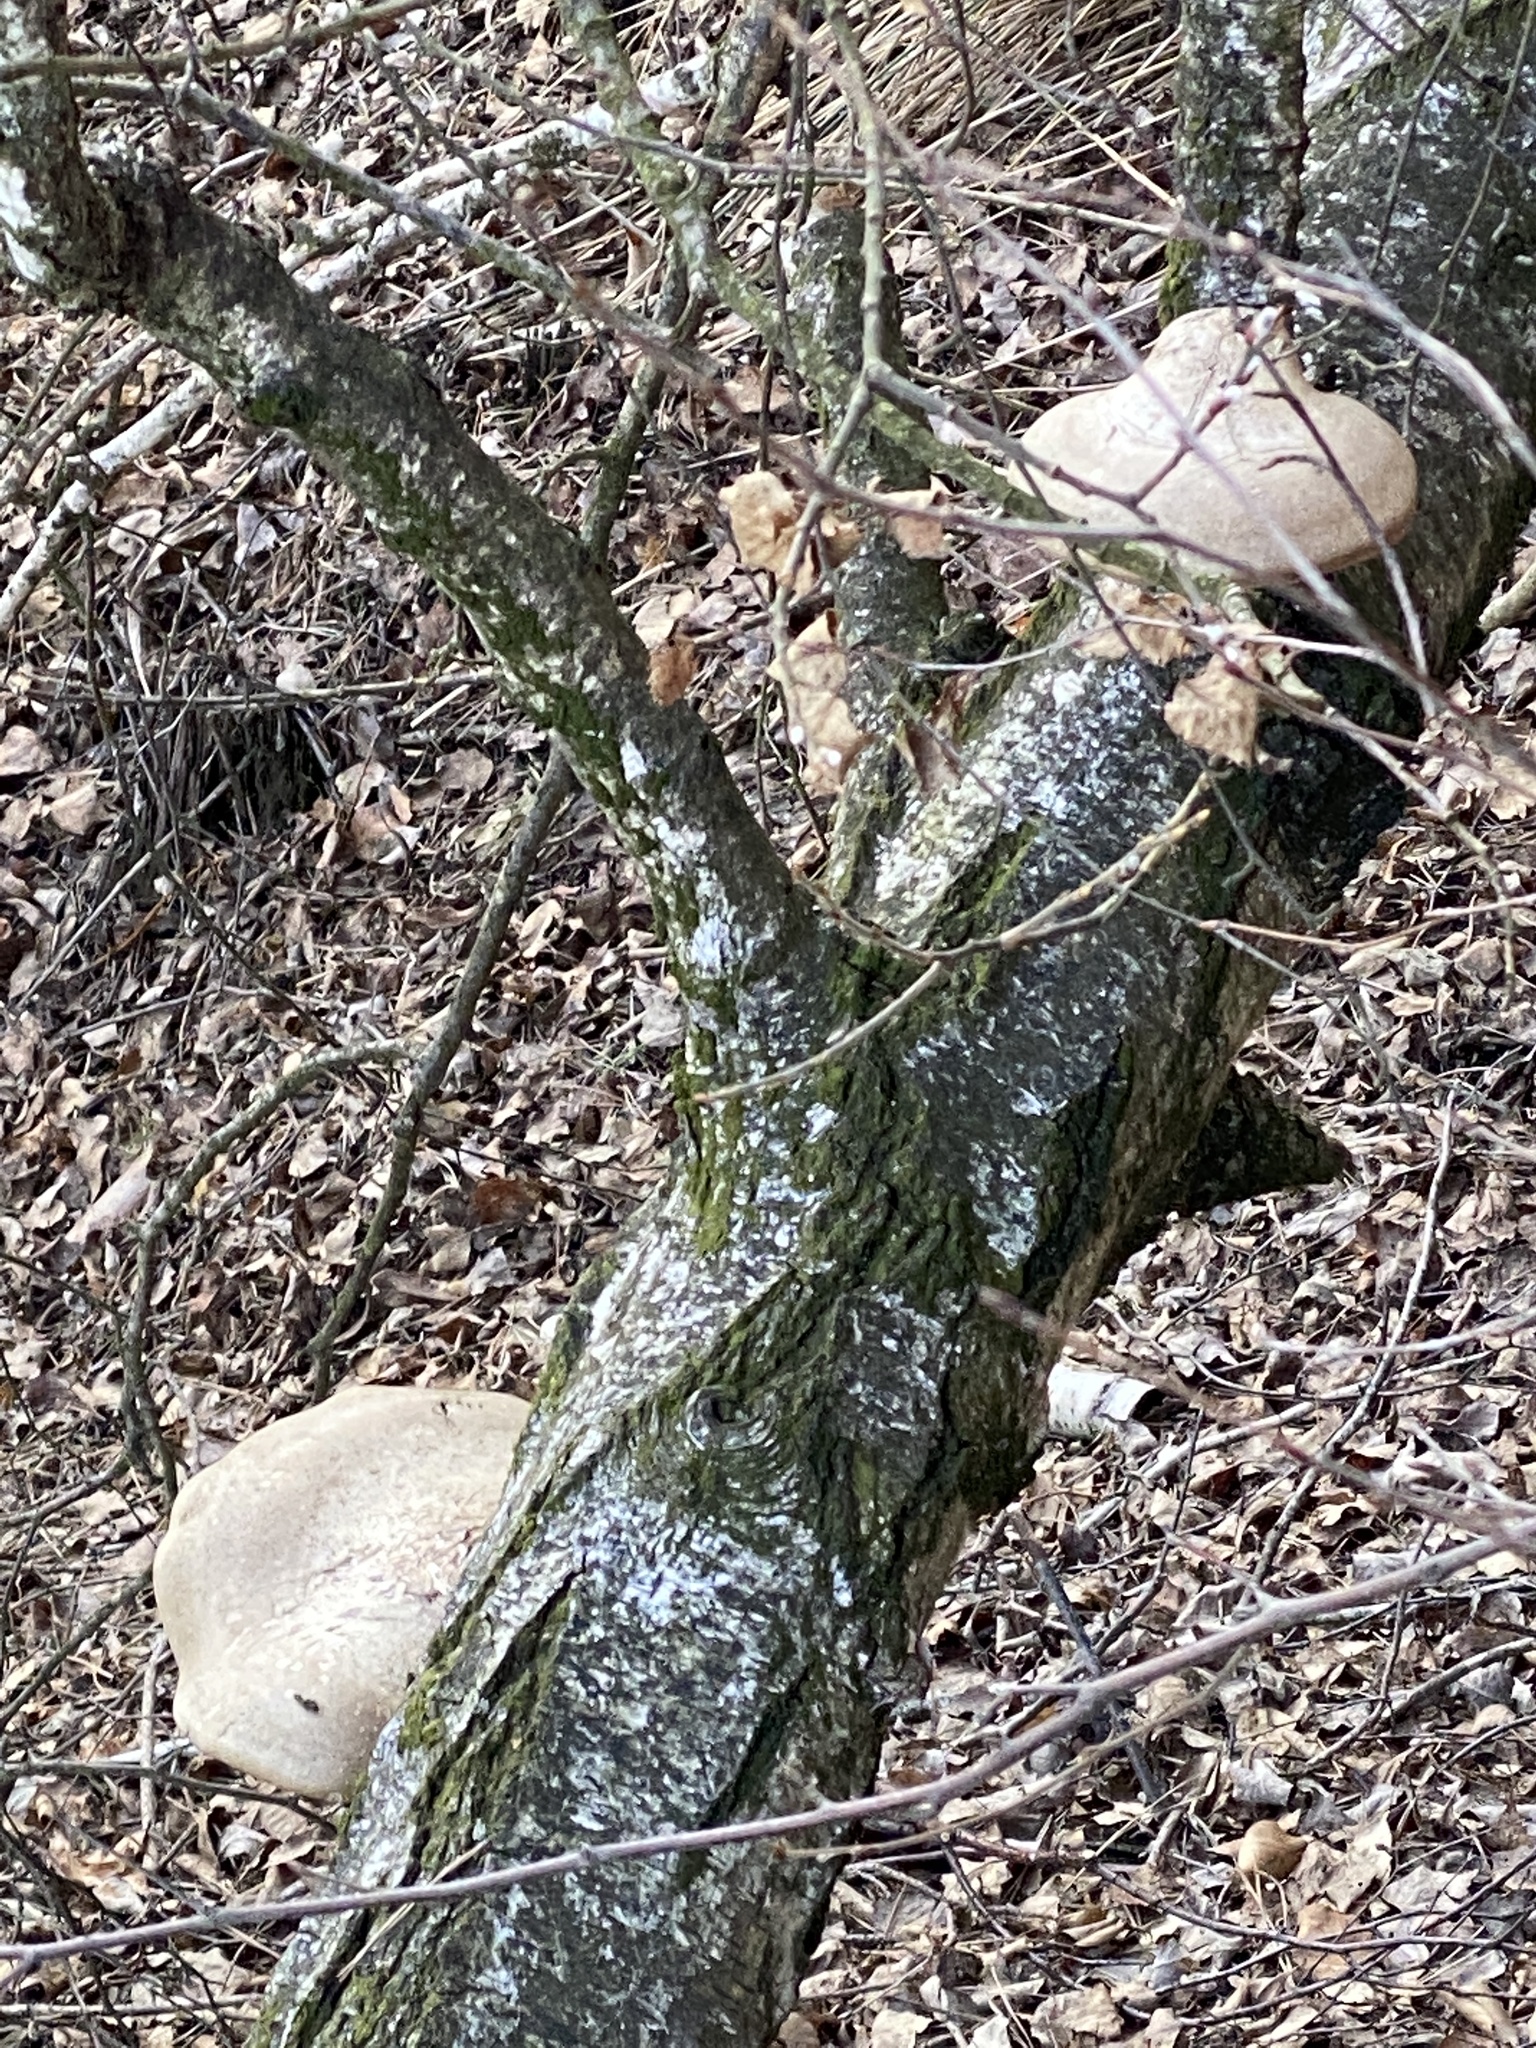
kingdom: Fungi
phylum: Basidiomycota
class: Agaricomycetes
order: Polyporales
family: Fomitopsidaceae
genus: Fomitopsis
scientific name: Fomitopsis betulina
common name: Birch polypore
